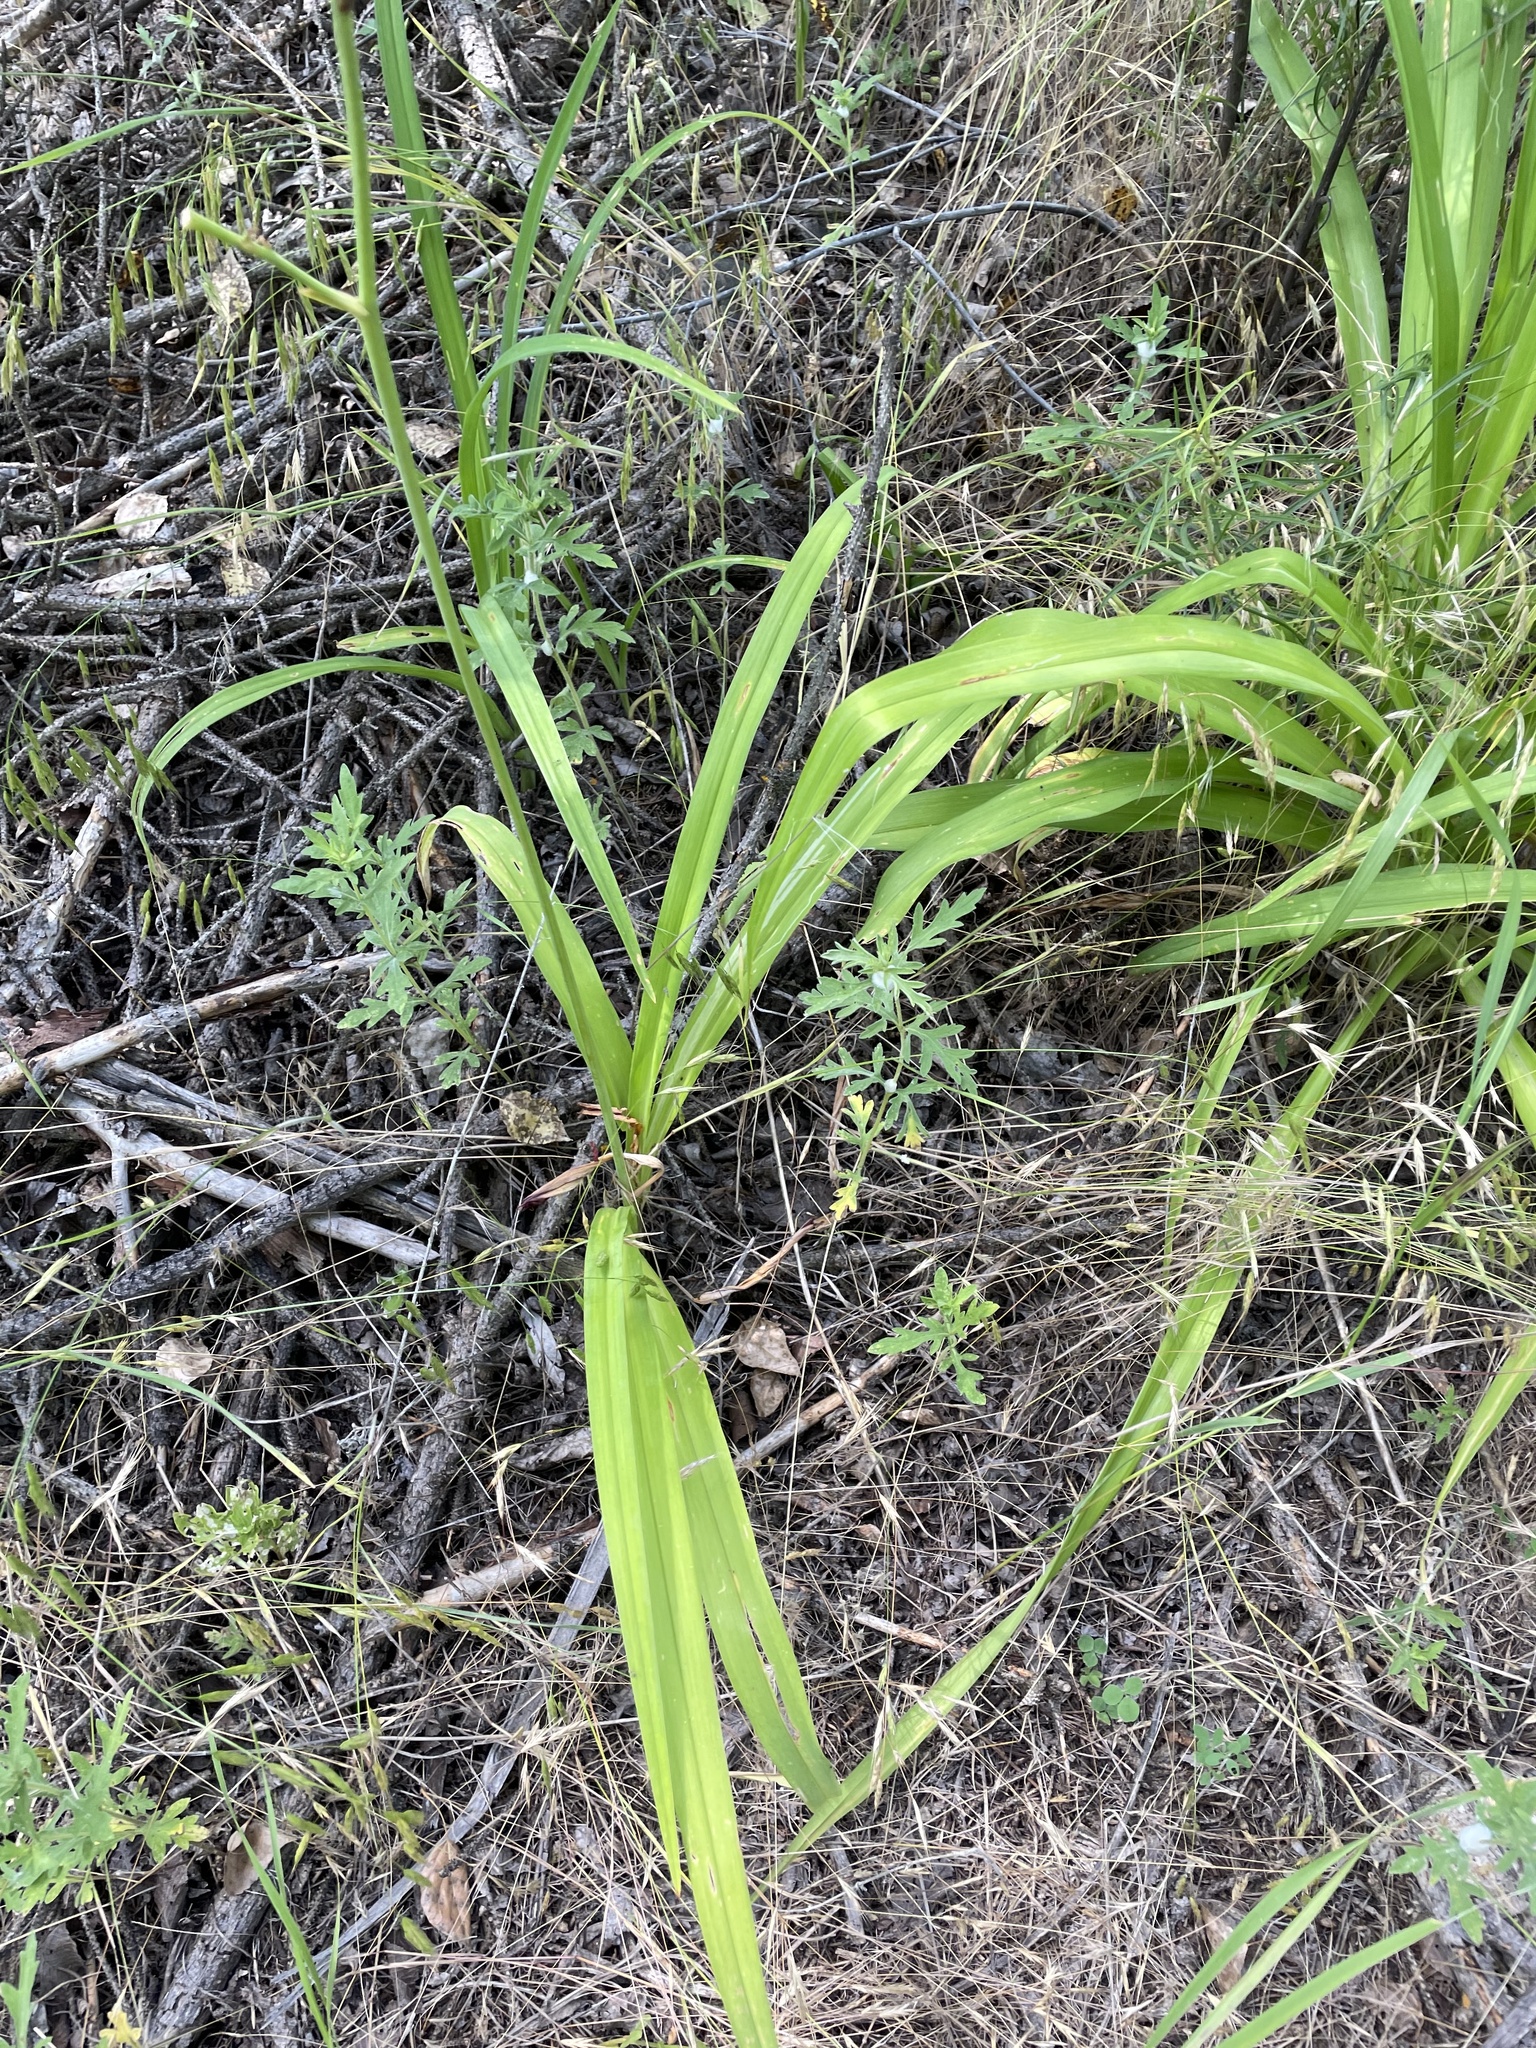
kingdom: Plantae
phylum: Tracheophyta
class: Liliopsida
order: Asparagales
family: Asphodelaceae
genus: Hemerocallis
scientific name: Hemerocallis fulva
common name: Orange day-lily
